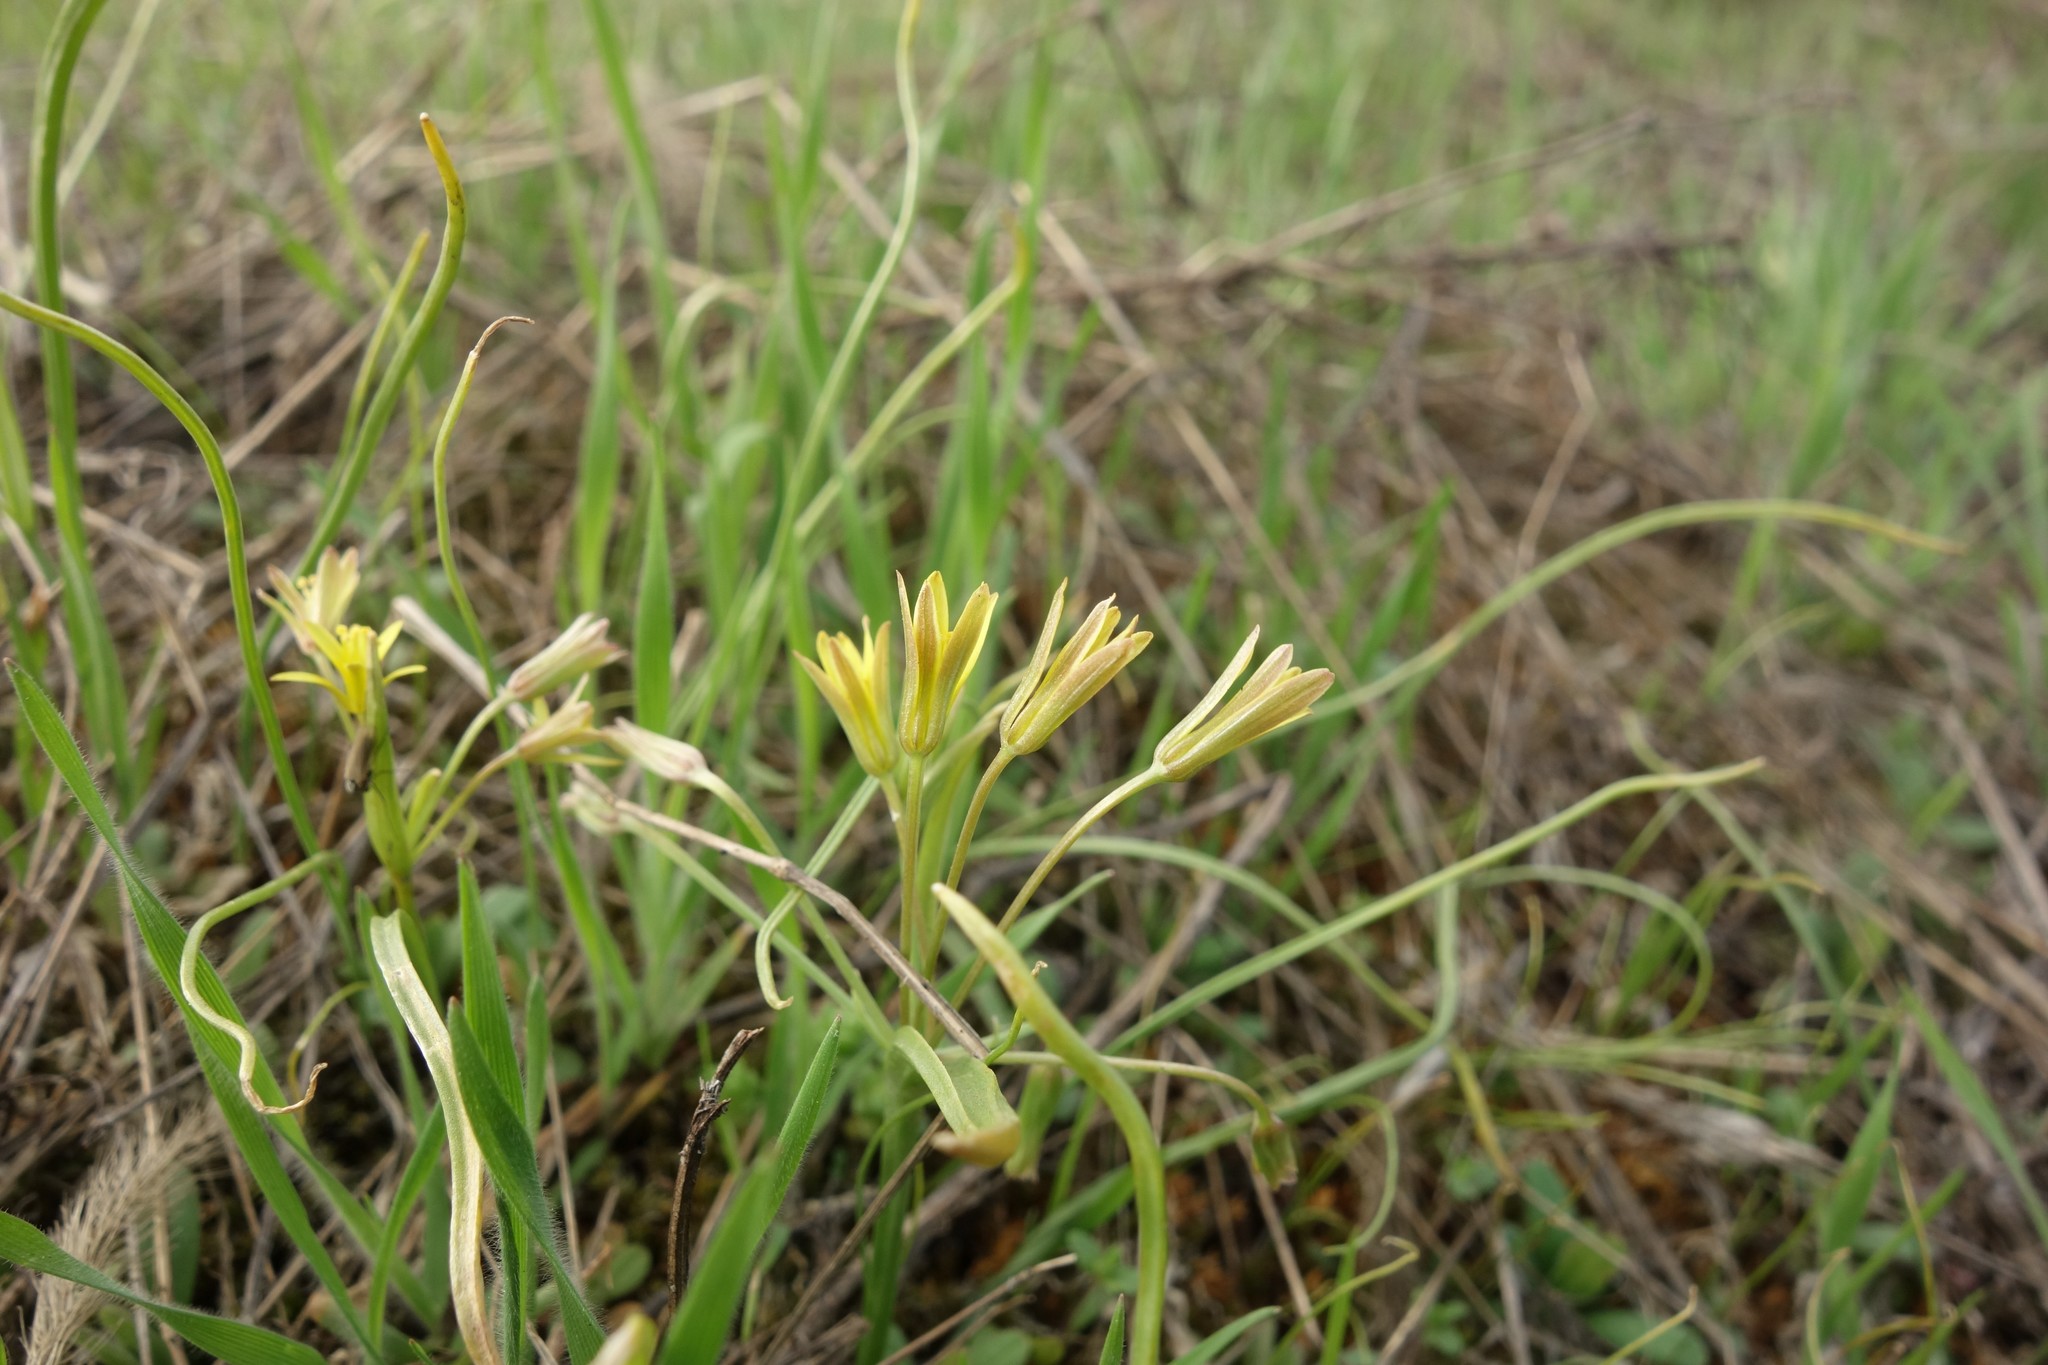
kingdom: Plantae
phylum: Tracheophyta
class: Liliopsida
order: Liliales
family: Liliaceae
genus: Gagea
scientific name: Gagea fragifera
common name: Lily
